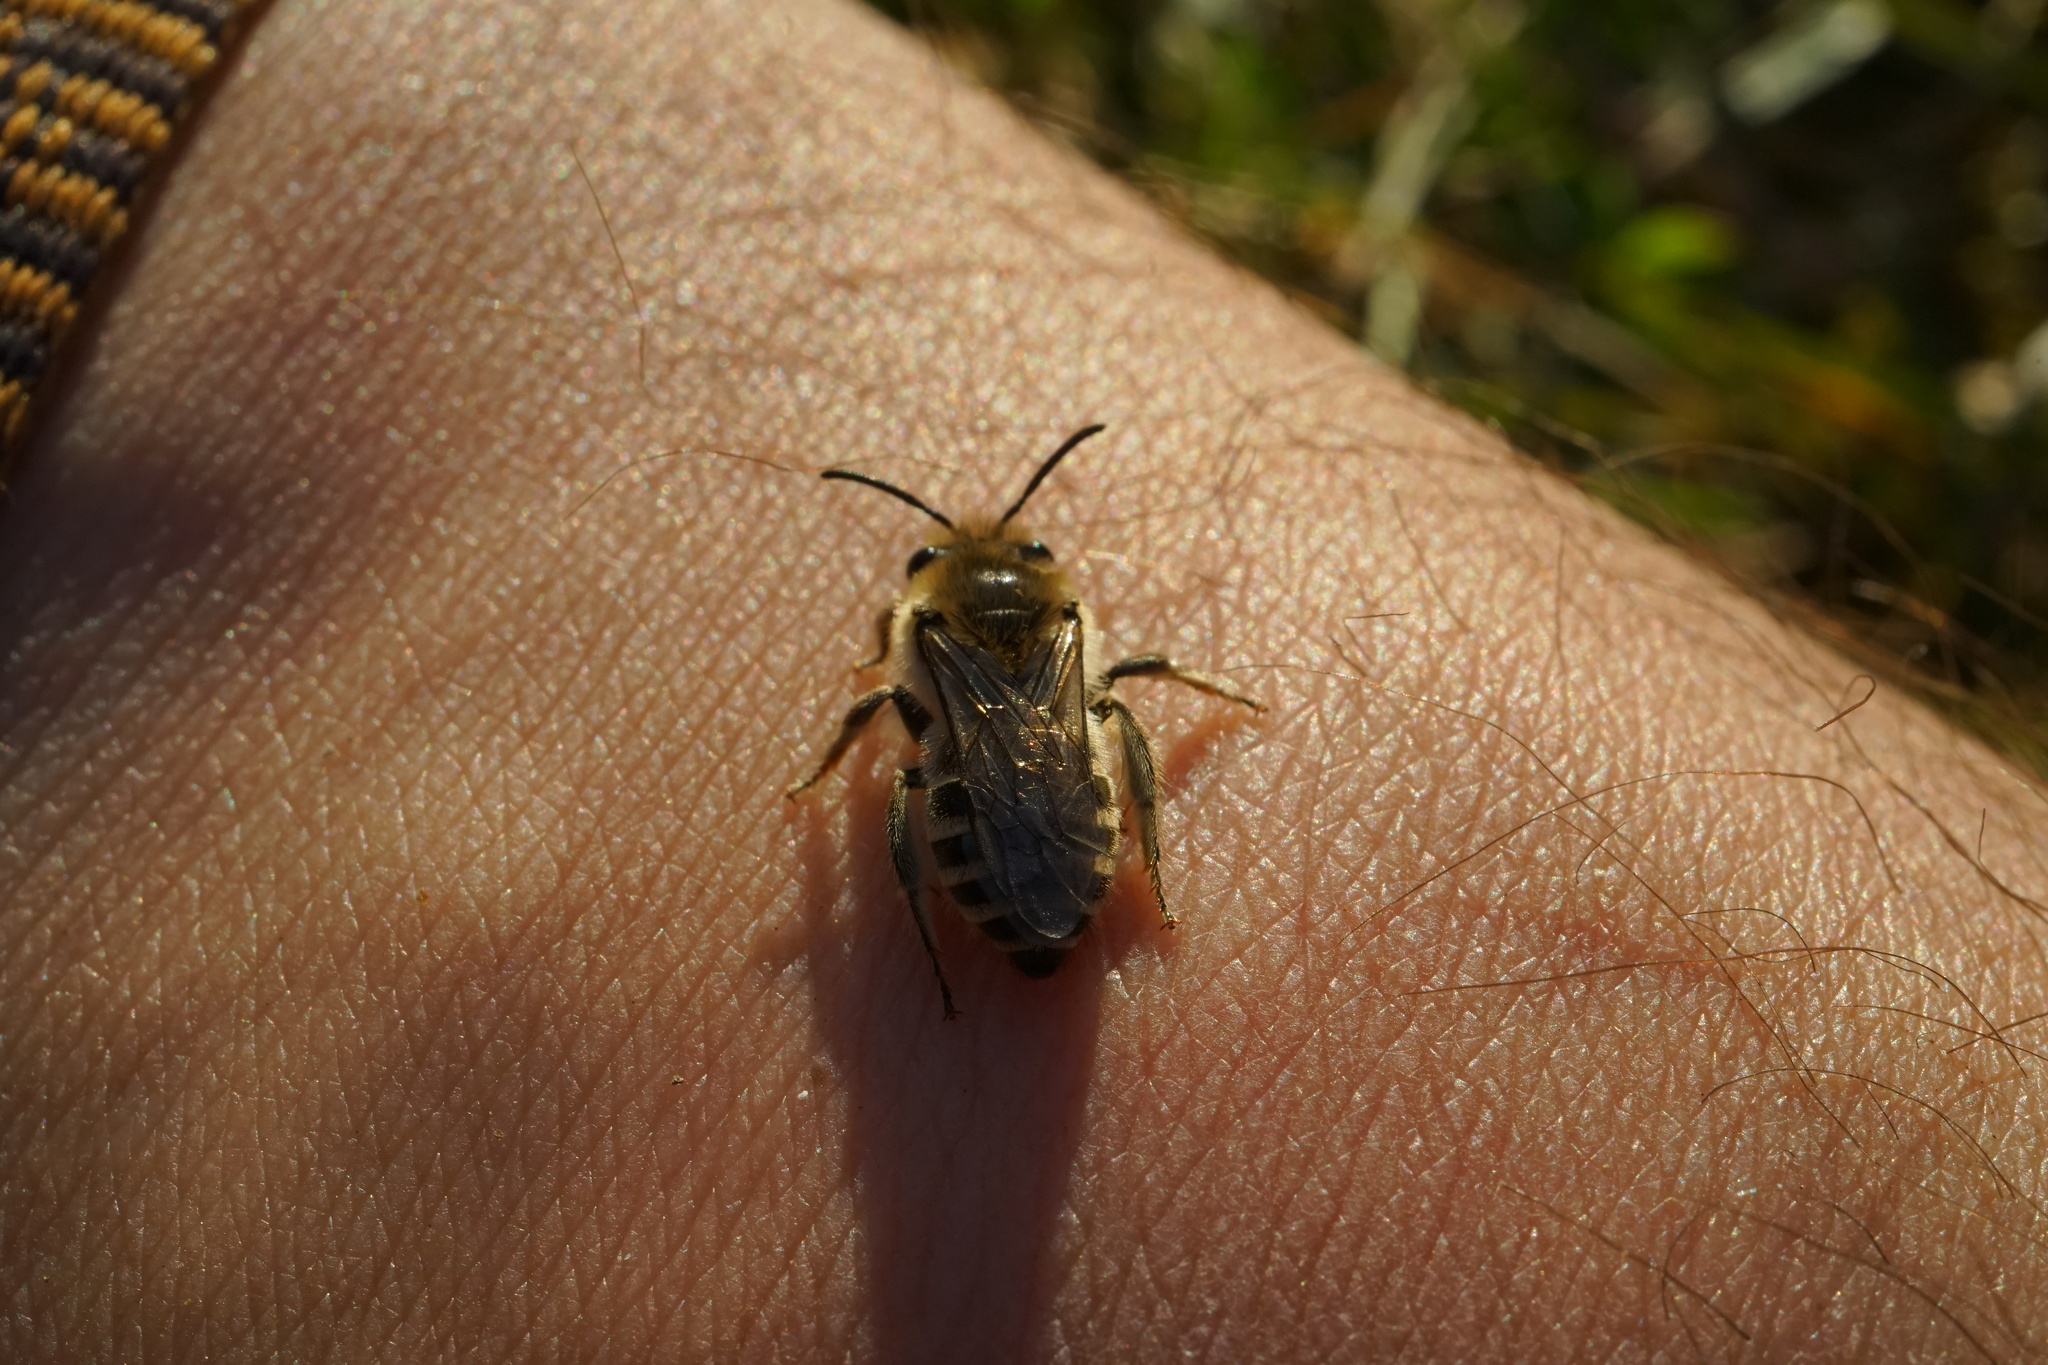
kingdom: Animalia
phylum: Arthropoda
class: Insecta
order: Hymenoptera
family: Colletidae
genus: Colletes
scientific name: Colletes inaequalis
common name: Unequal cellophane bee
